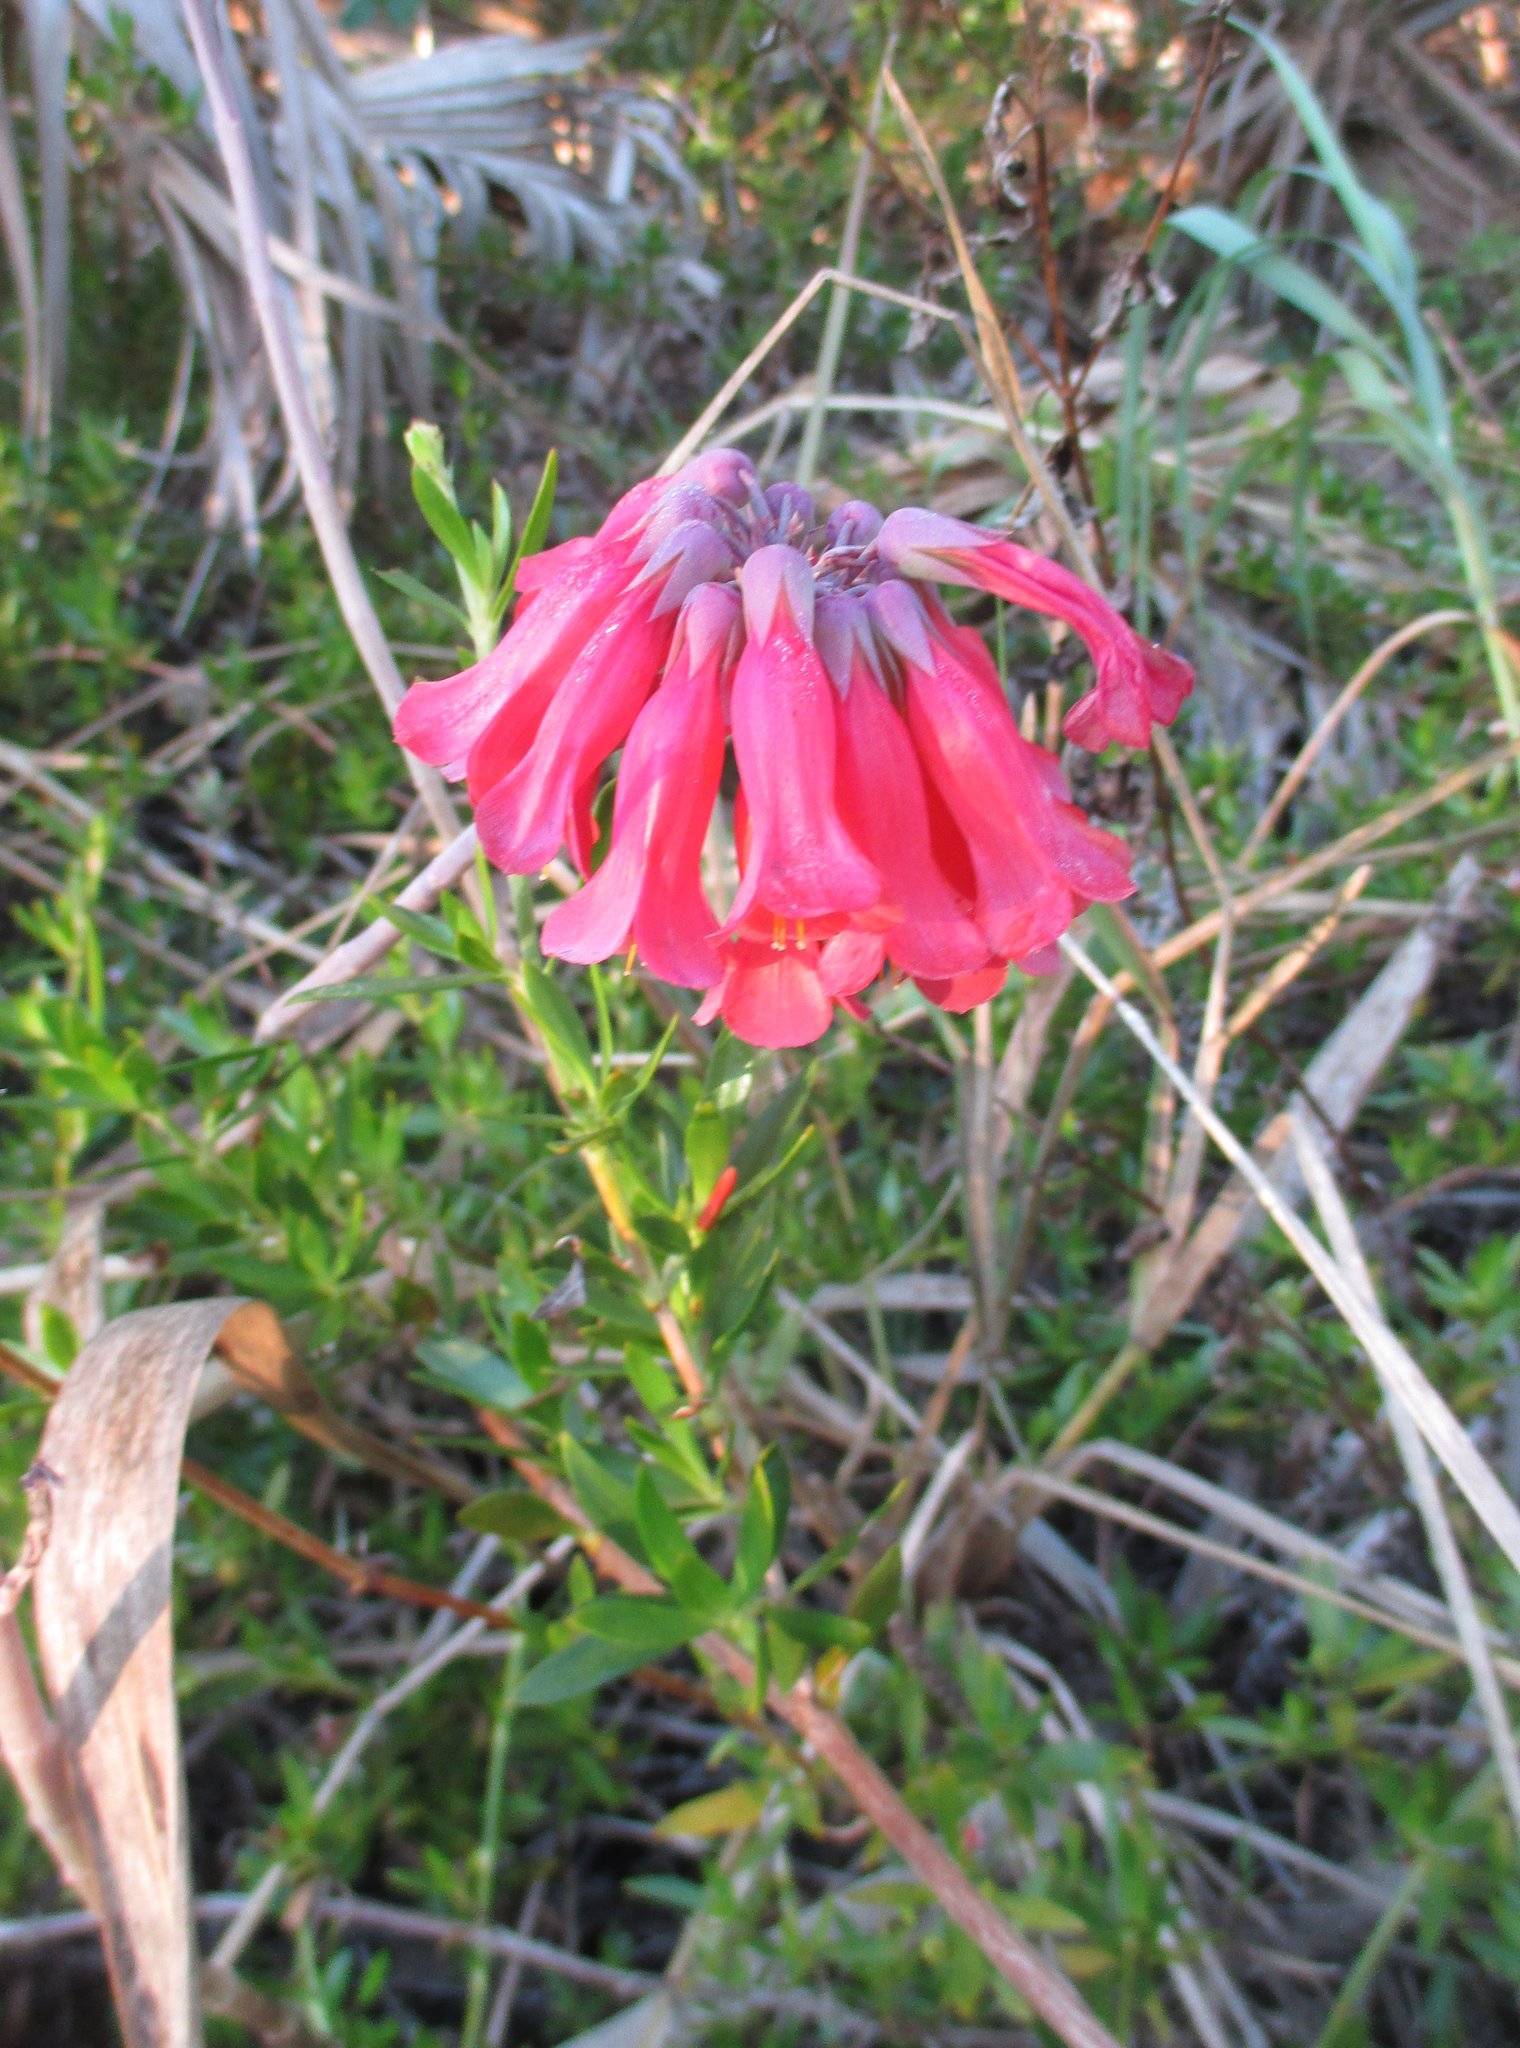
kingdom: Plantae
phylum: Tracheophyta
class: Magnoliopsida
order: Saxifragales
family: Crassulaceae
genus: Kalanchoe
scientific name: Kalanchoe delagoensis
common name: Chandelier plant
